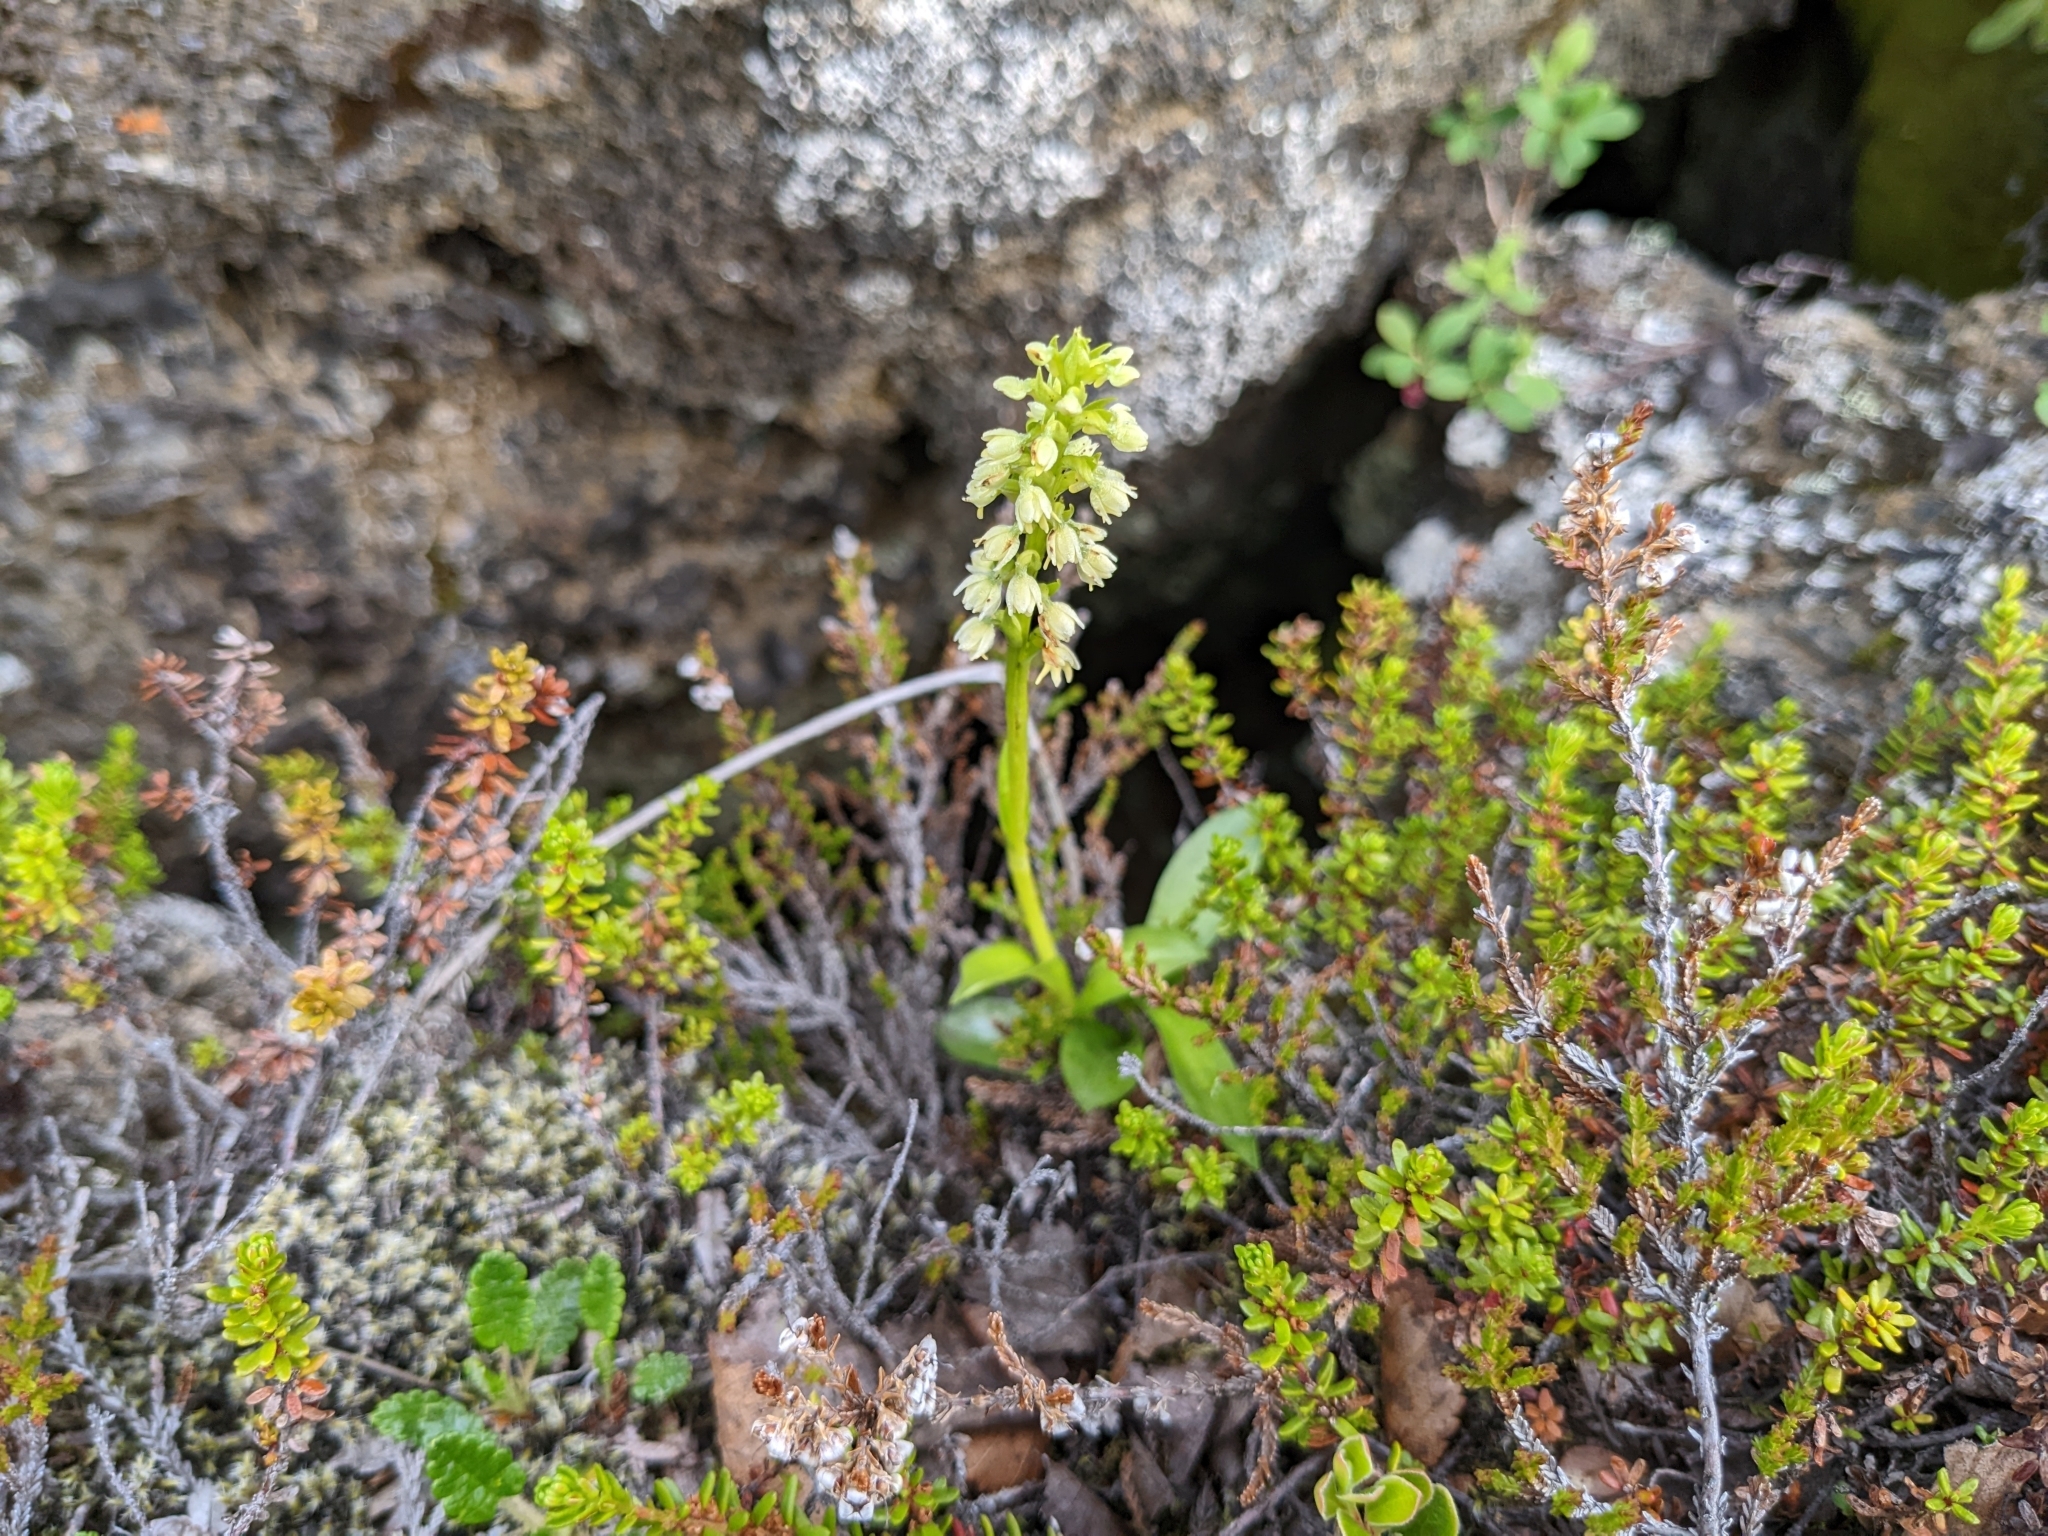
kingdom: Plantae
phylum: Tracheophyta
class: Liliopsida
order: Asparagales
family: Orchidaceae
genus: Pseudorchis
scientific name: Pseudorchis albida
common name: Small-white orchid
